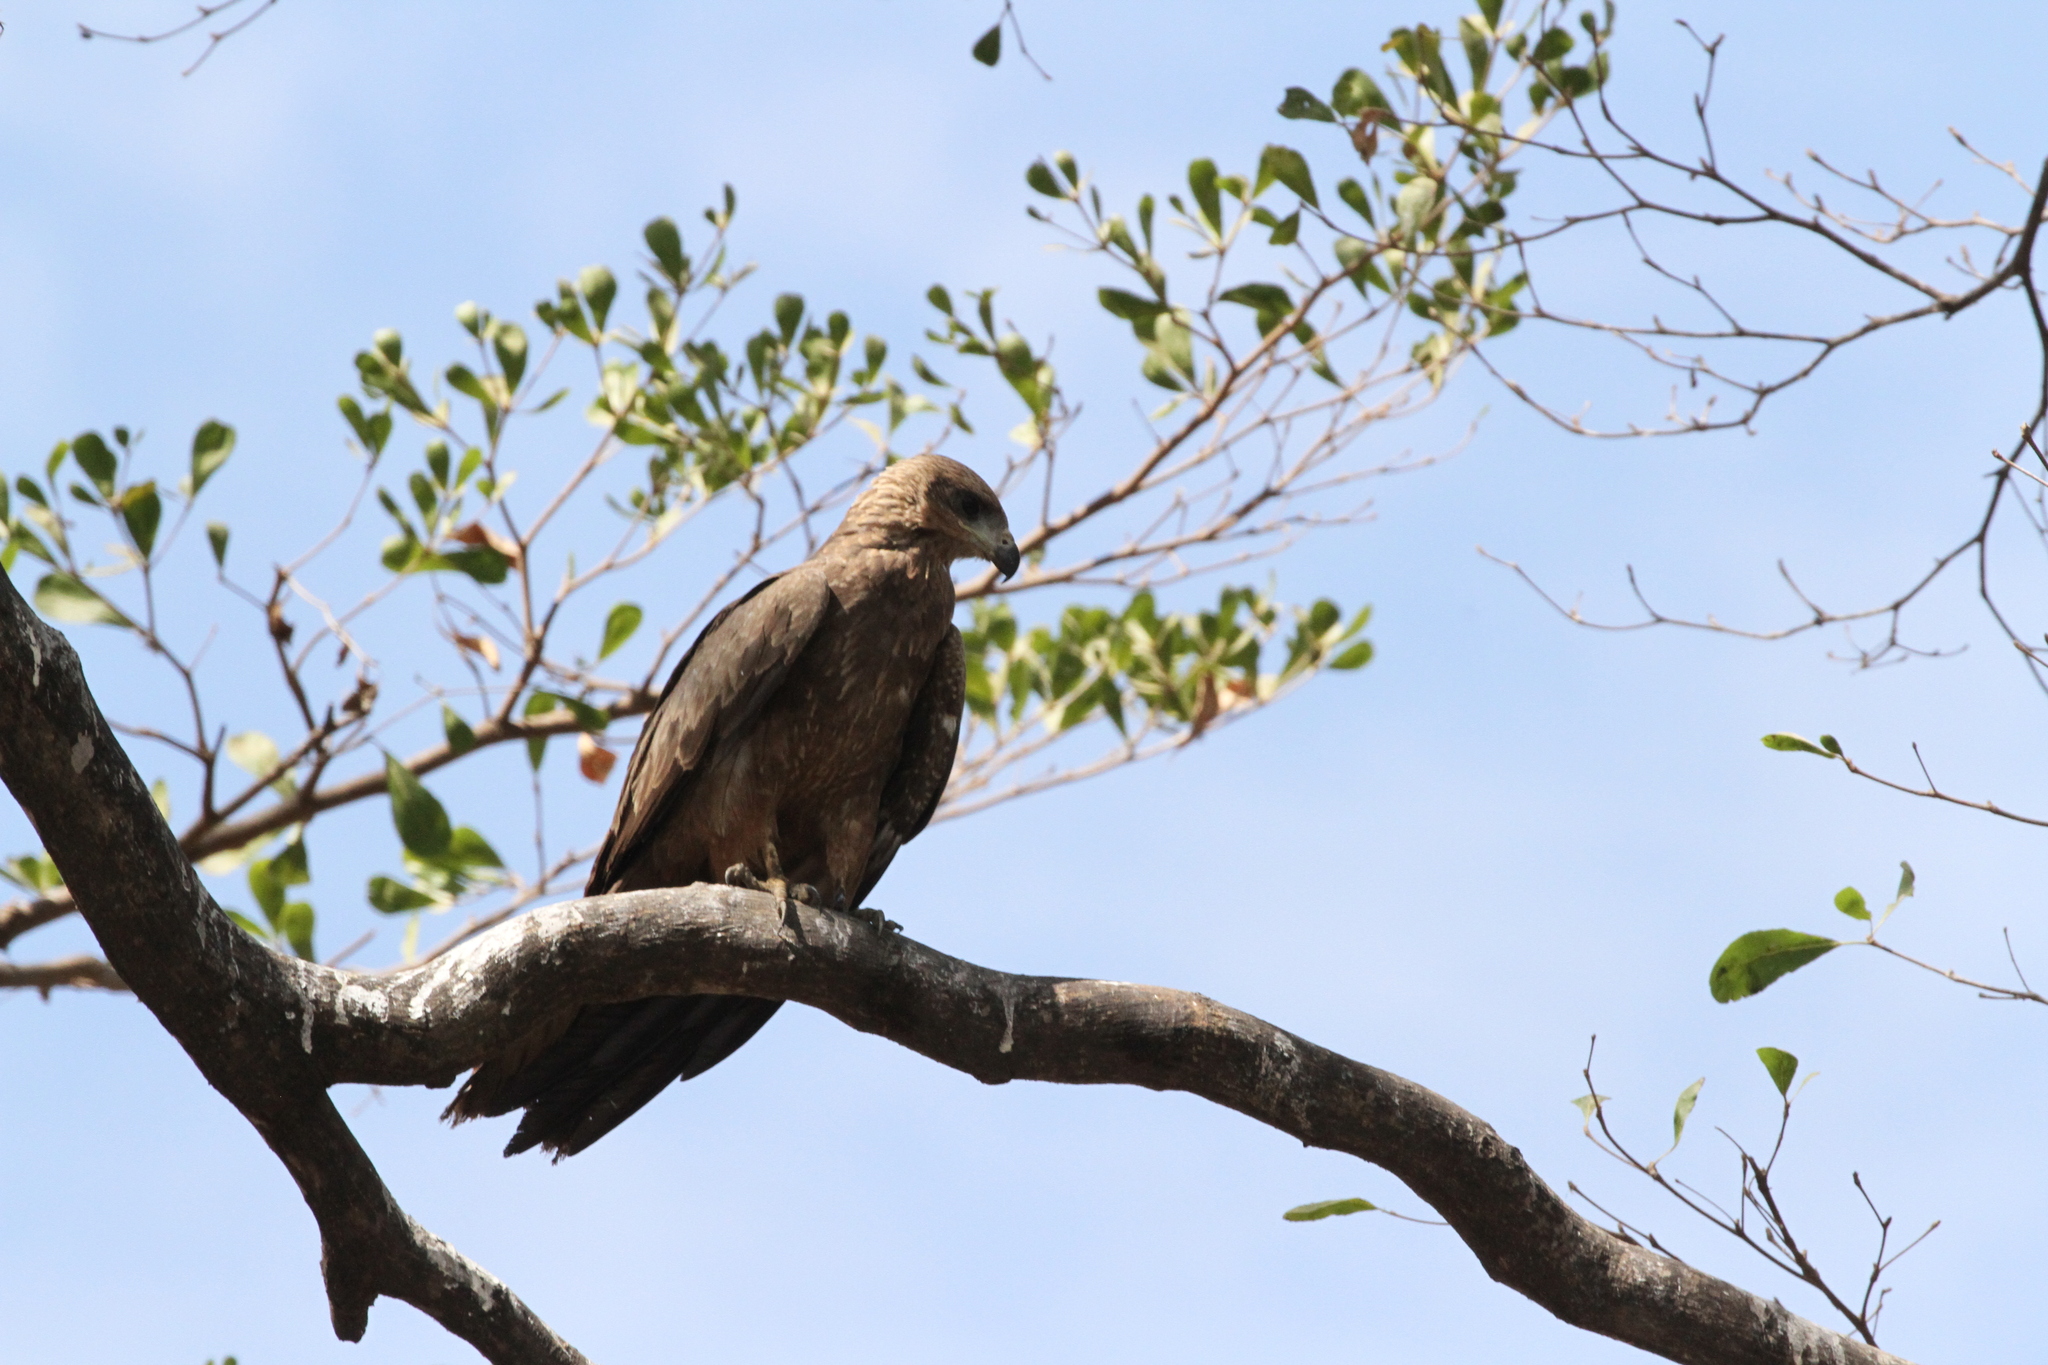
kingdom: Animalia
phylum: Chordata
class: Aves
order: Accipitriformes
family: Accipitridae
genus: Milvus
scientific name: Milvus migrans
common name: Black kite
